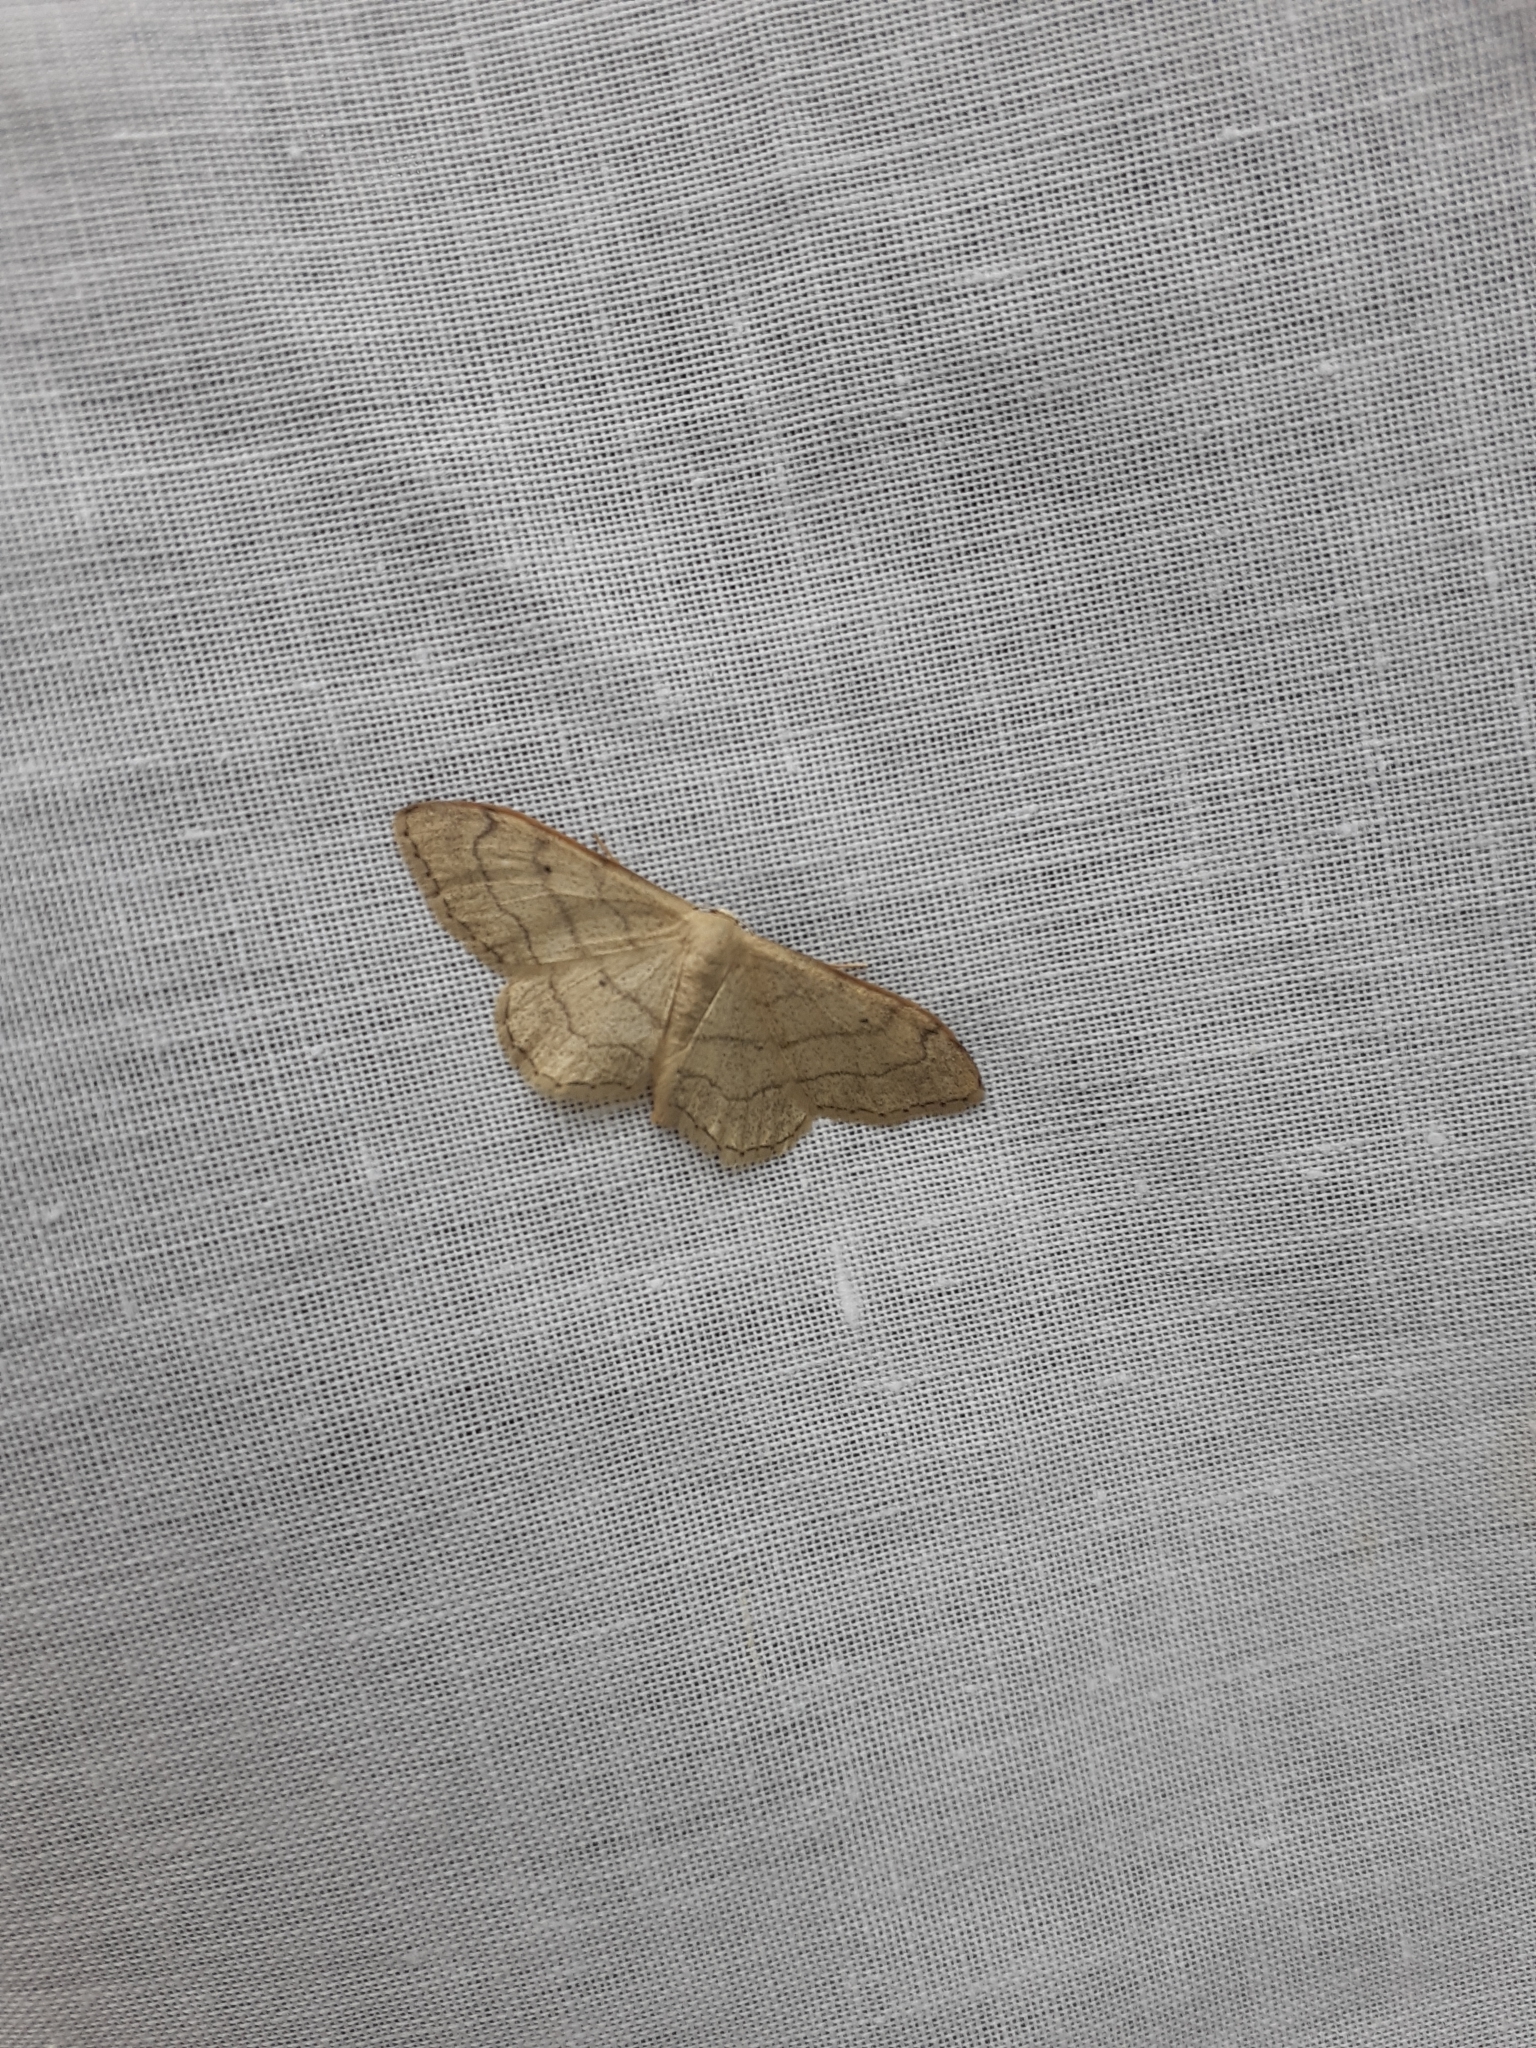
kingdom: Animalia
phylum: Arthropoda
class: Insecta
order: Lepidoptera
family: Geometridae
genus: Idaea
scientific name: Idaea aversata
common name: Riband wave
